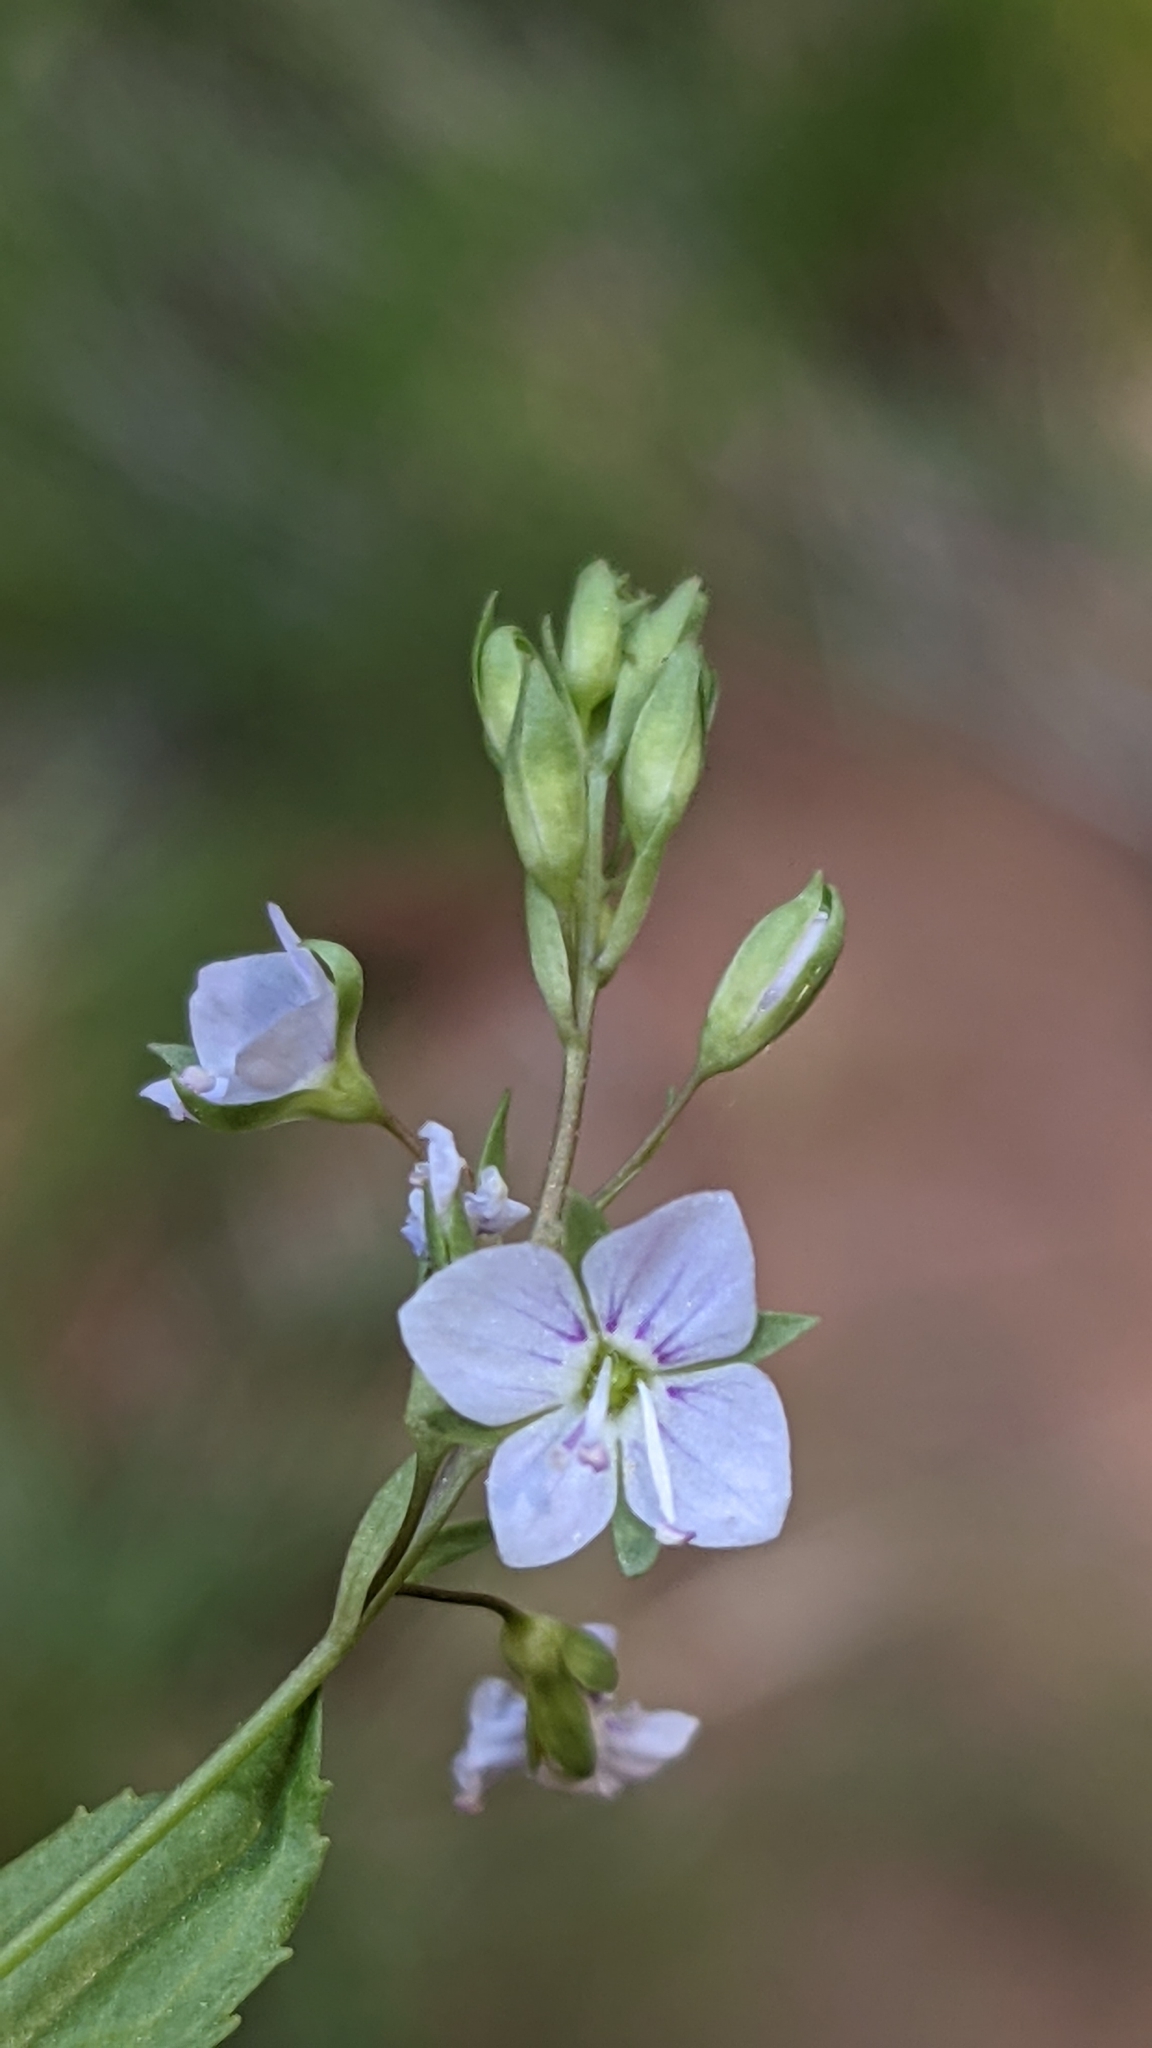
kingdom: Plantae
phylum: Tracheophyta
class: Magnoliopsida
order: Lamiales
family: Plantaginaceae
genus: Veronica
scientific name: Veronica anagallis-aquatica
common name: Water speedwell
